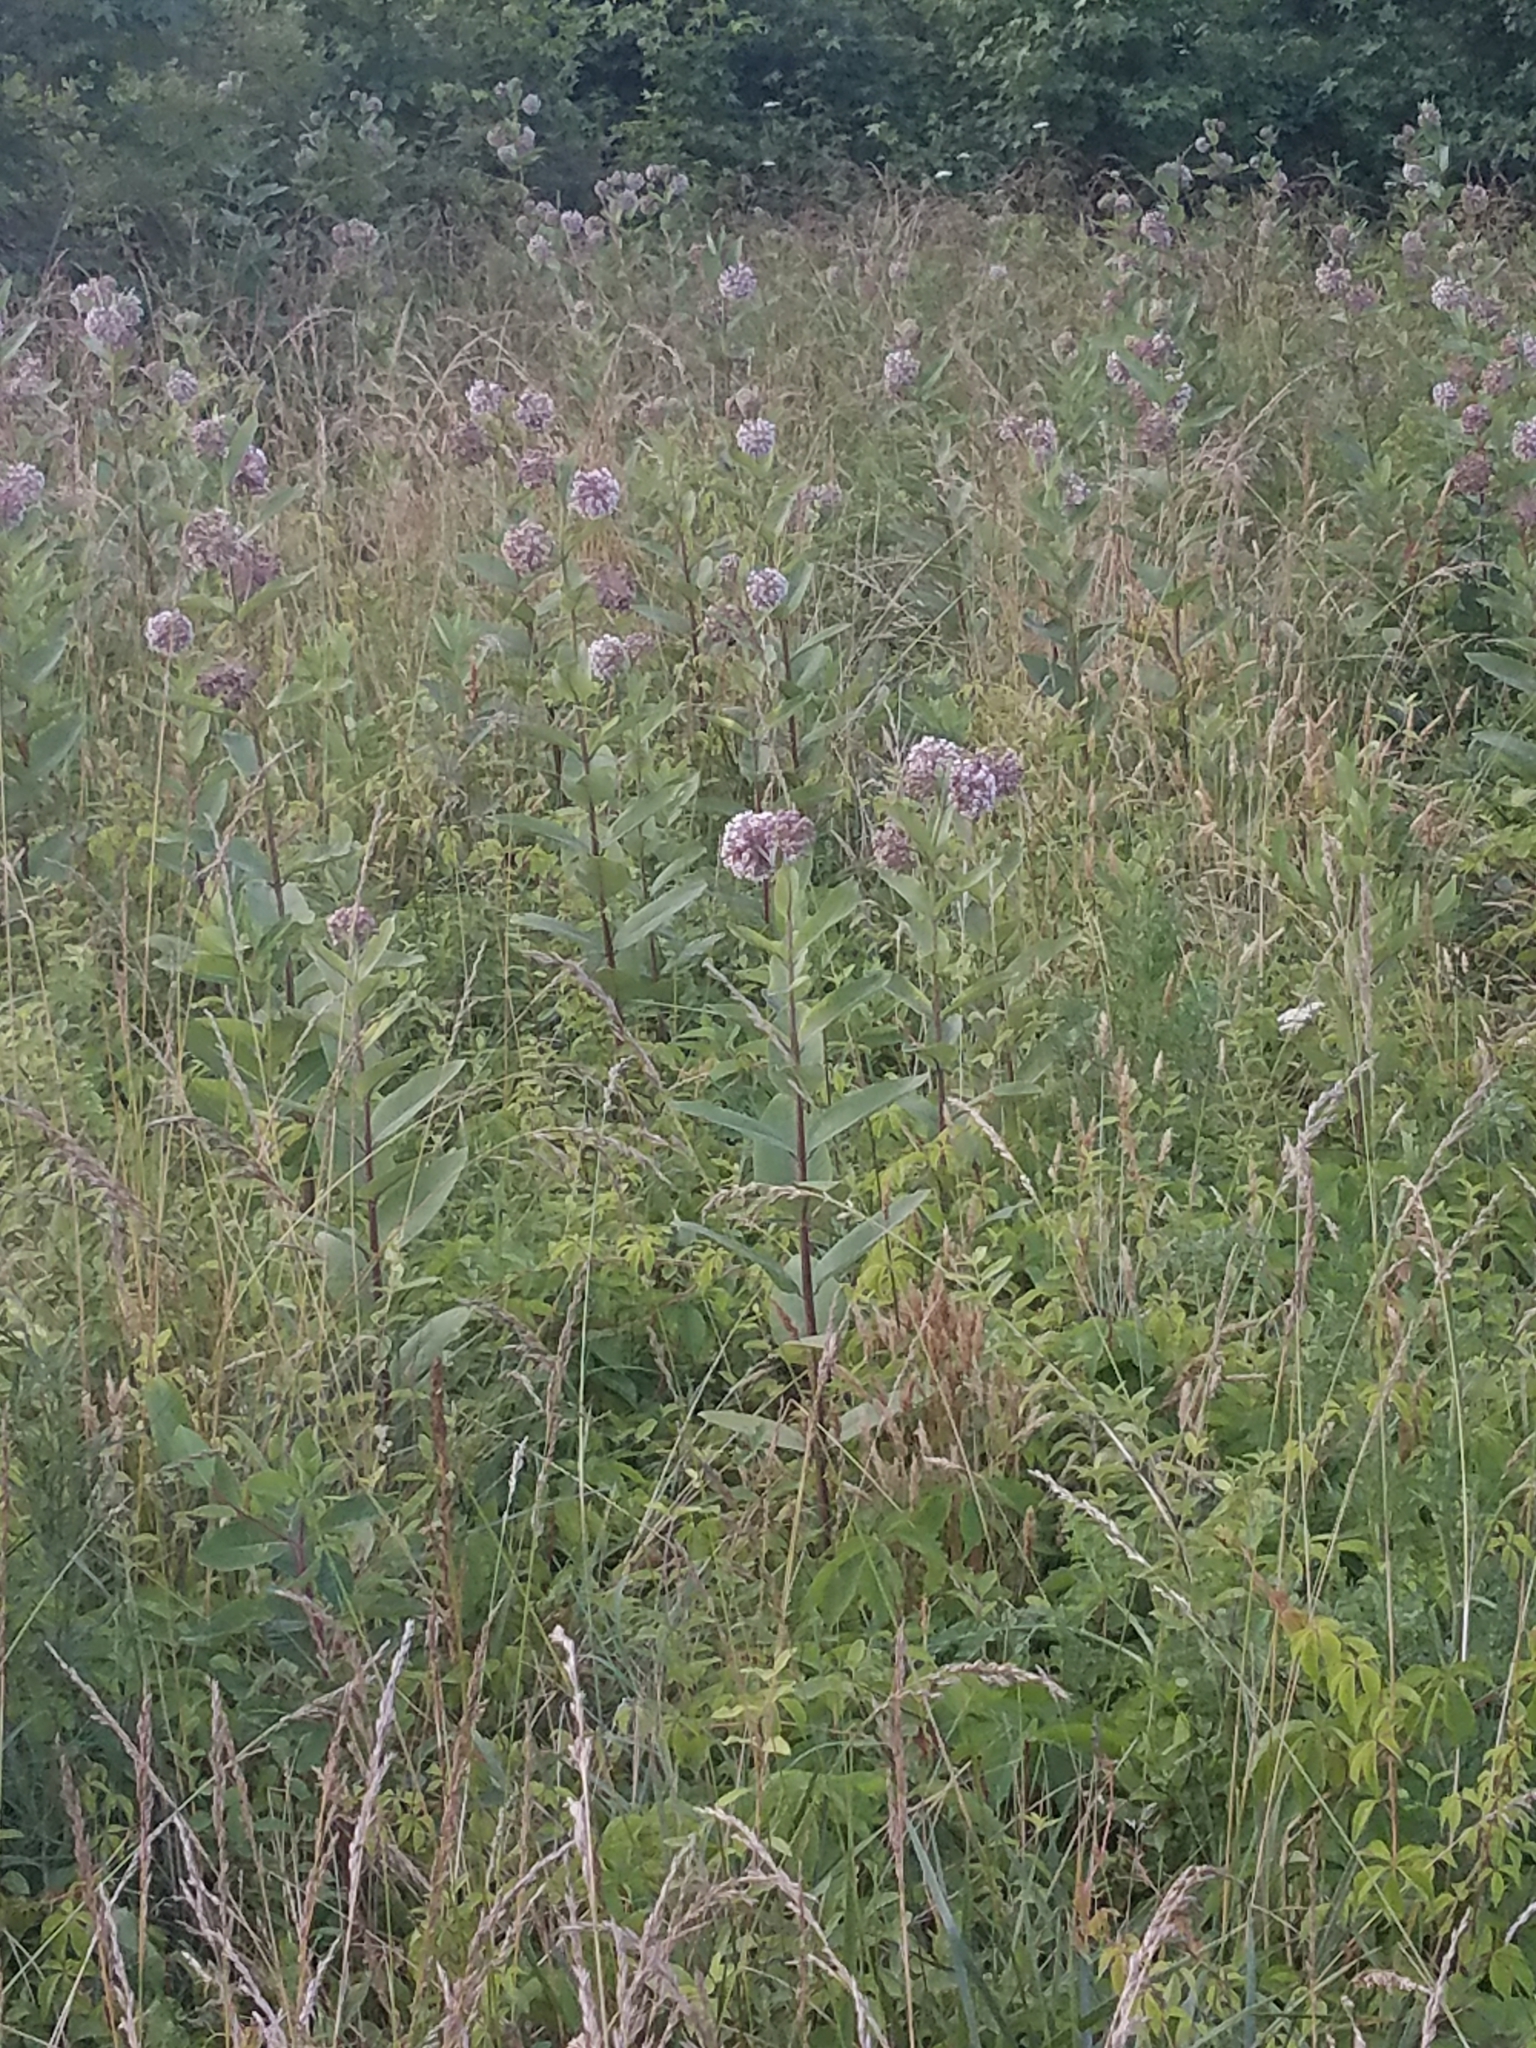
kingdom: Plantae
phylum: Tracheophyta
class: Magnoliopsida
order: Gentianales
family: Apocynaceae
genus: Asclepias
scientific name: Asclepias syriaca
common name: Common milkweed
